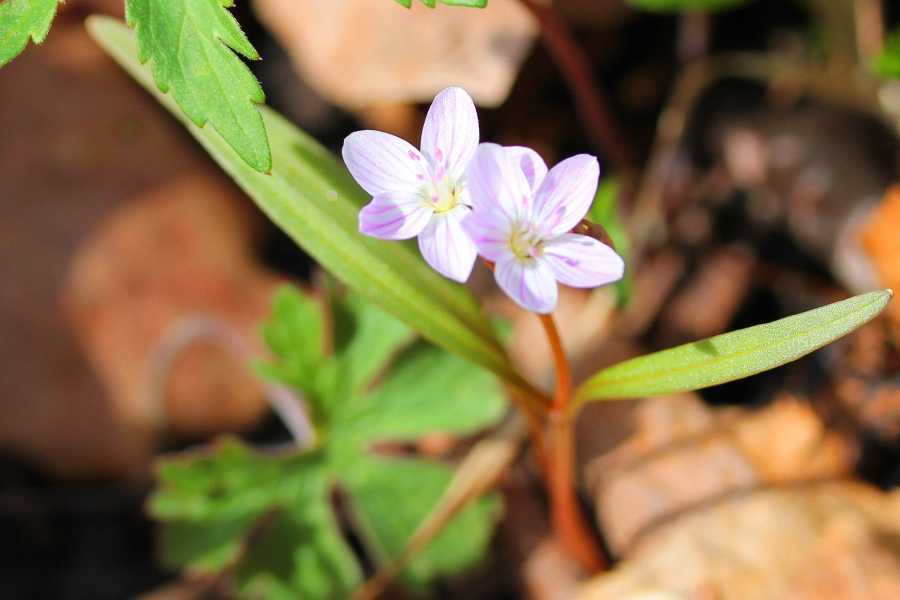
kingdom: Plantae
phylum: Tracheophyta
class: Magnoliopsida
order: Caryophyllales
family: Montiaceae
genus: Claytonia
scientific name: Claytonia virginica
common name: Virginia springbeauty
